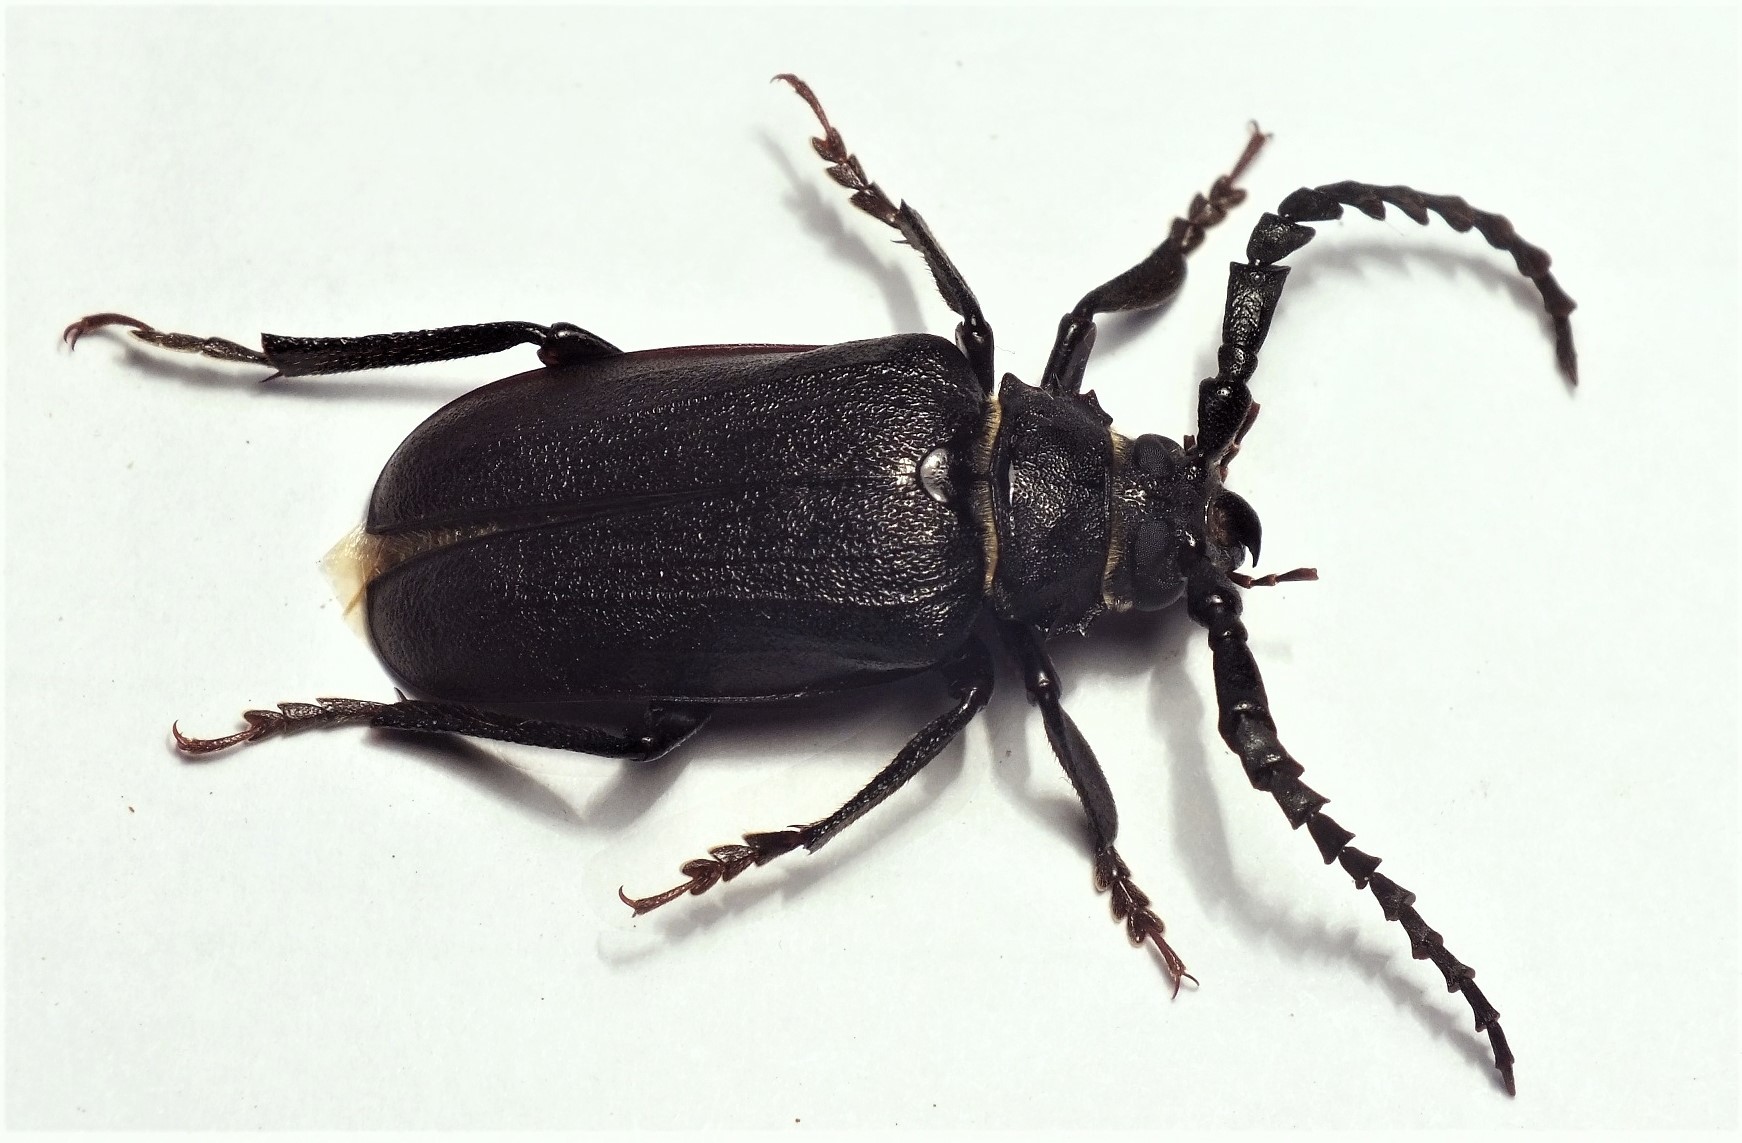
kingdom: Animalia
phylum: Arthropoda
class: Insecta
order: Coleoptera
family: Cerambycidae
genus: Prionus
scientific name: Prionus coriarius
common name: Tanner beetle
